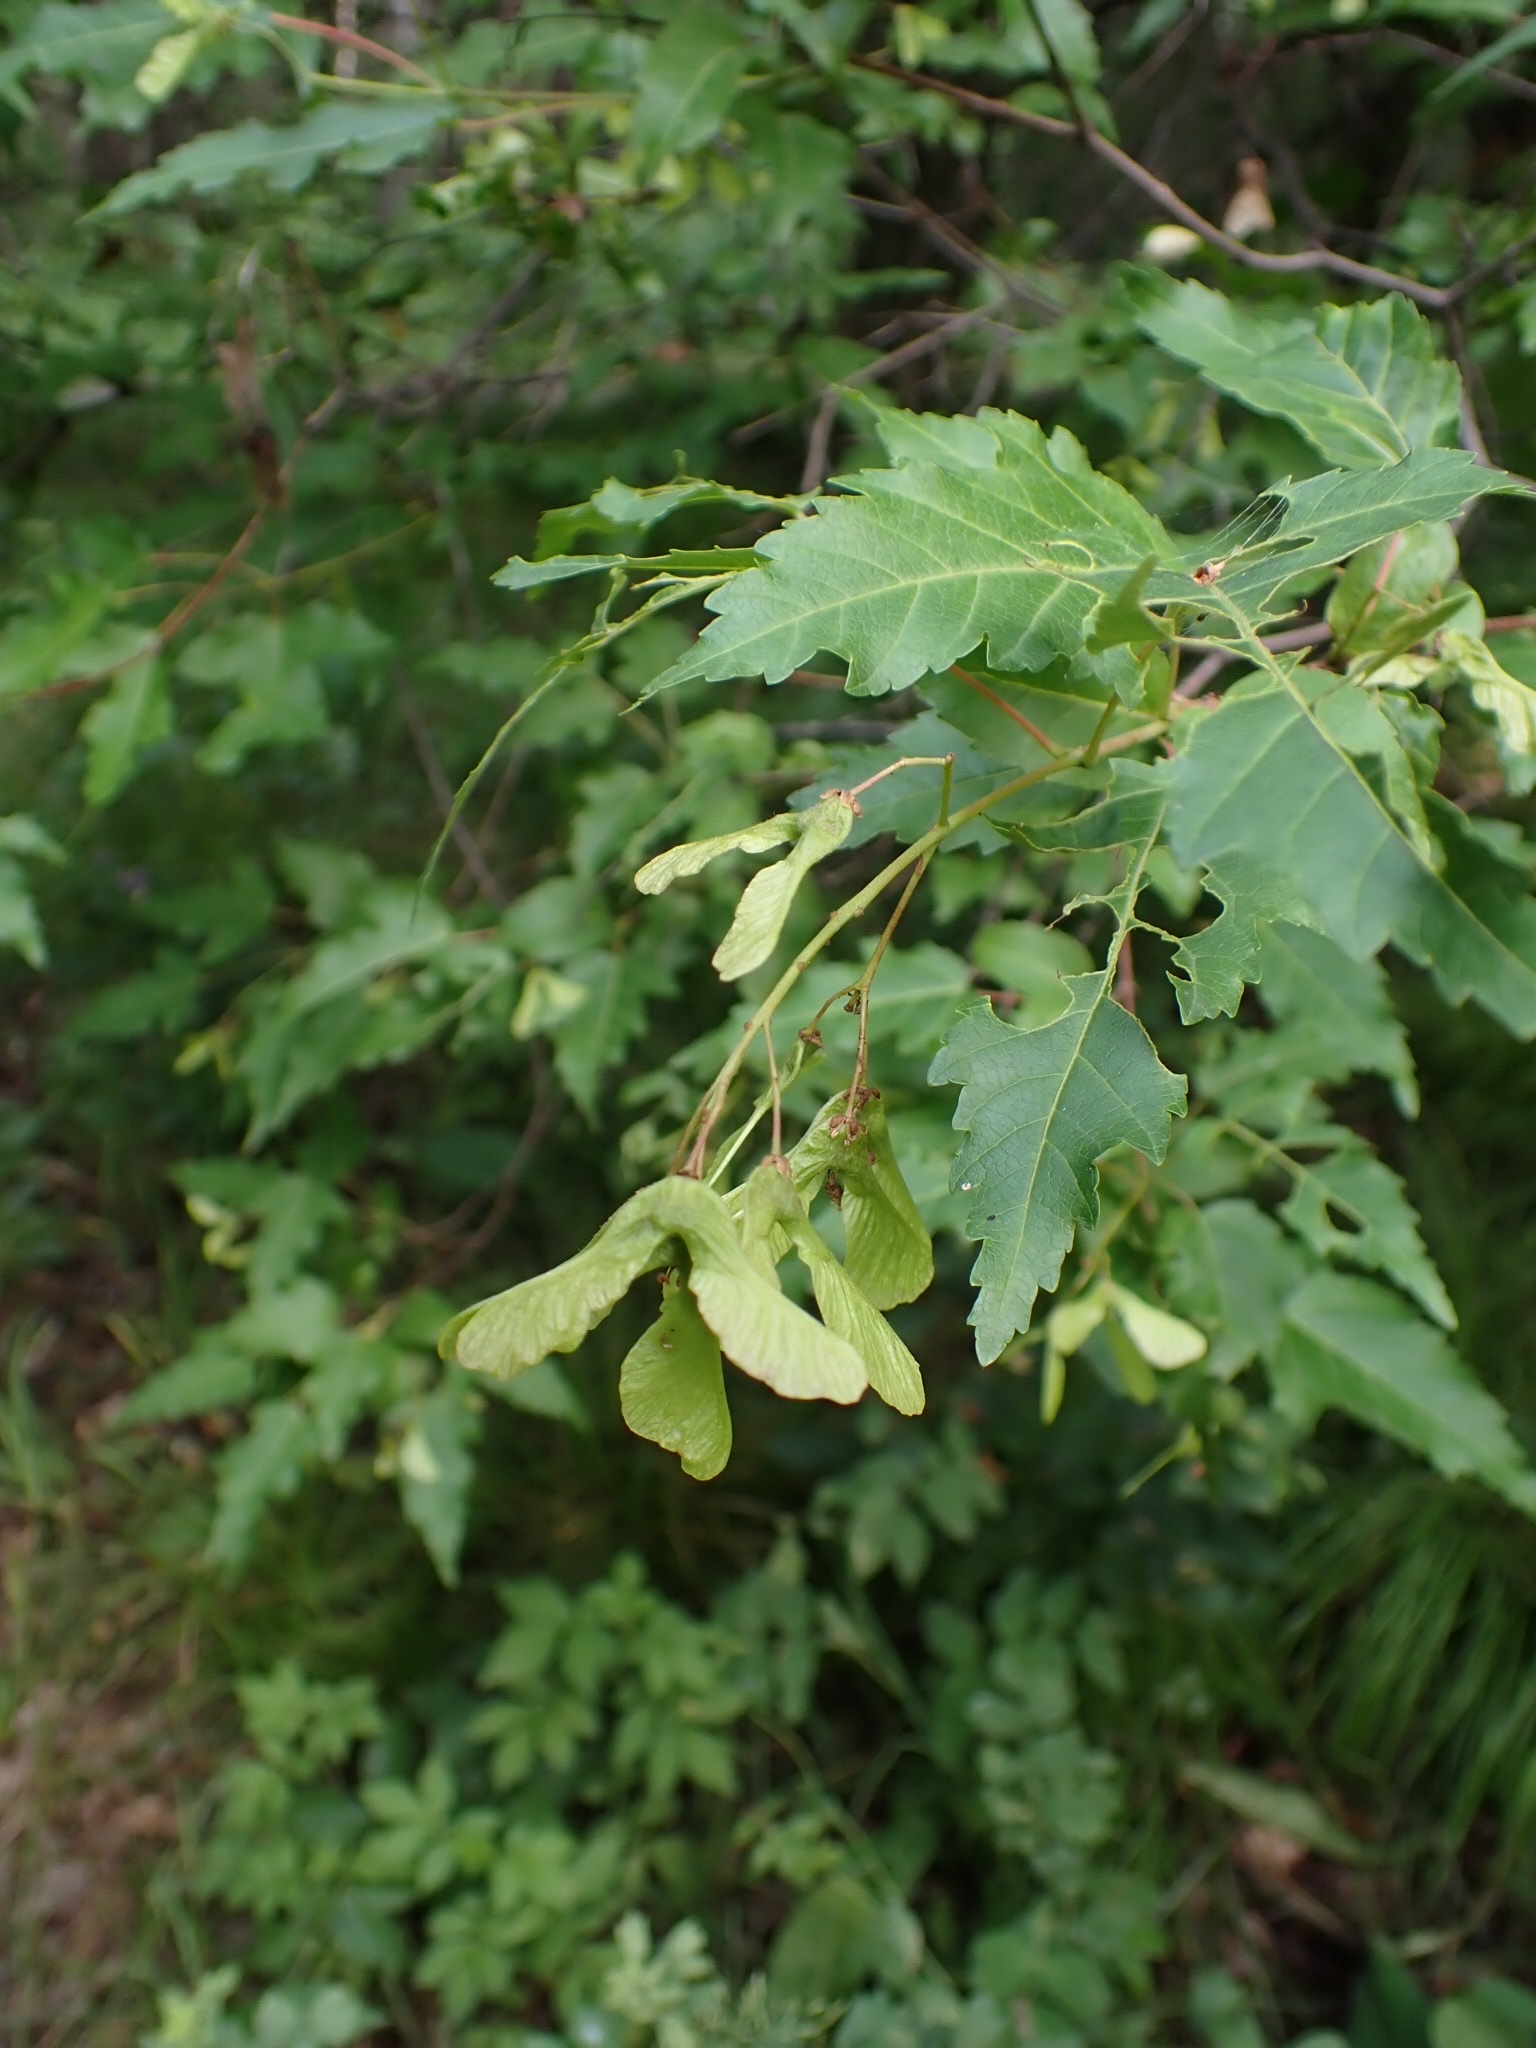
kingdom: Plantae
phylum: Tracheophyta
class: Magnoliopsida
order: Sapindales
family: Sapindaceae
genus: Acer
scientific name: Acer tataricum
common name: Tartar maple
